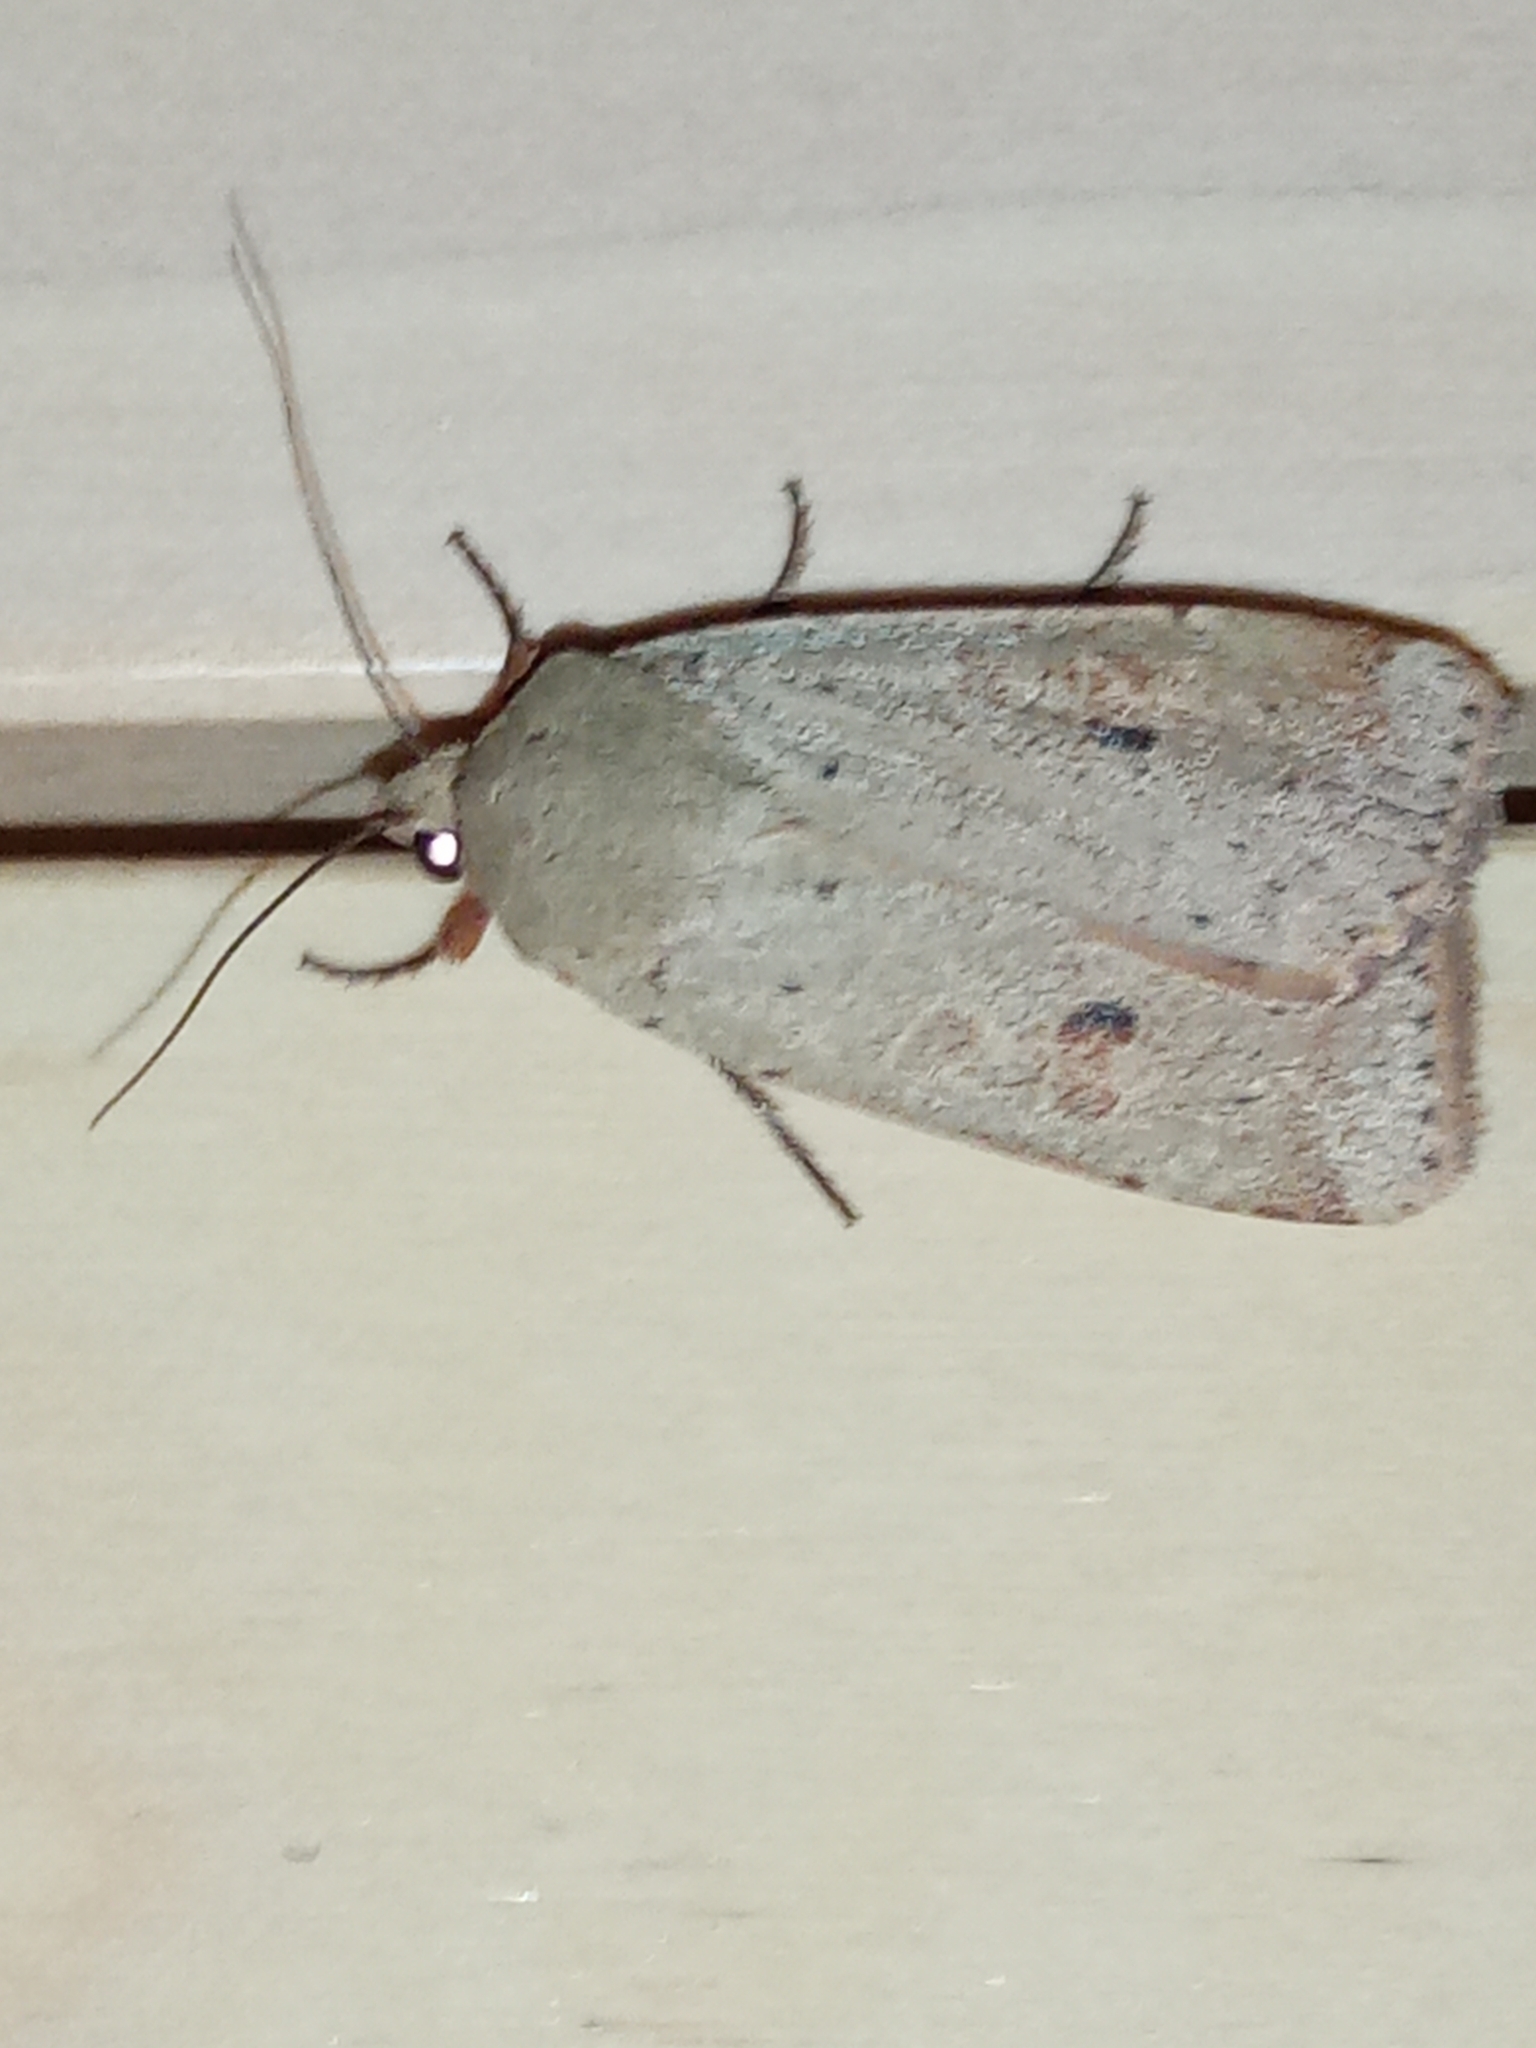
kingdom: Animalia
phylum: Arthropoda
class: Insecta
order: Lepidoptera
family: Noctuidae
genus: Noctua
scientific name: Noctua comes
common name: Lesser yellow underwing
